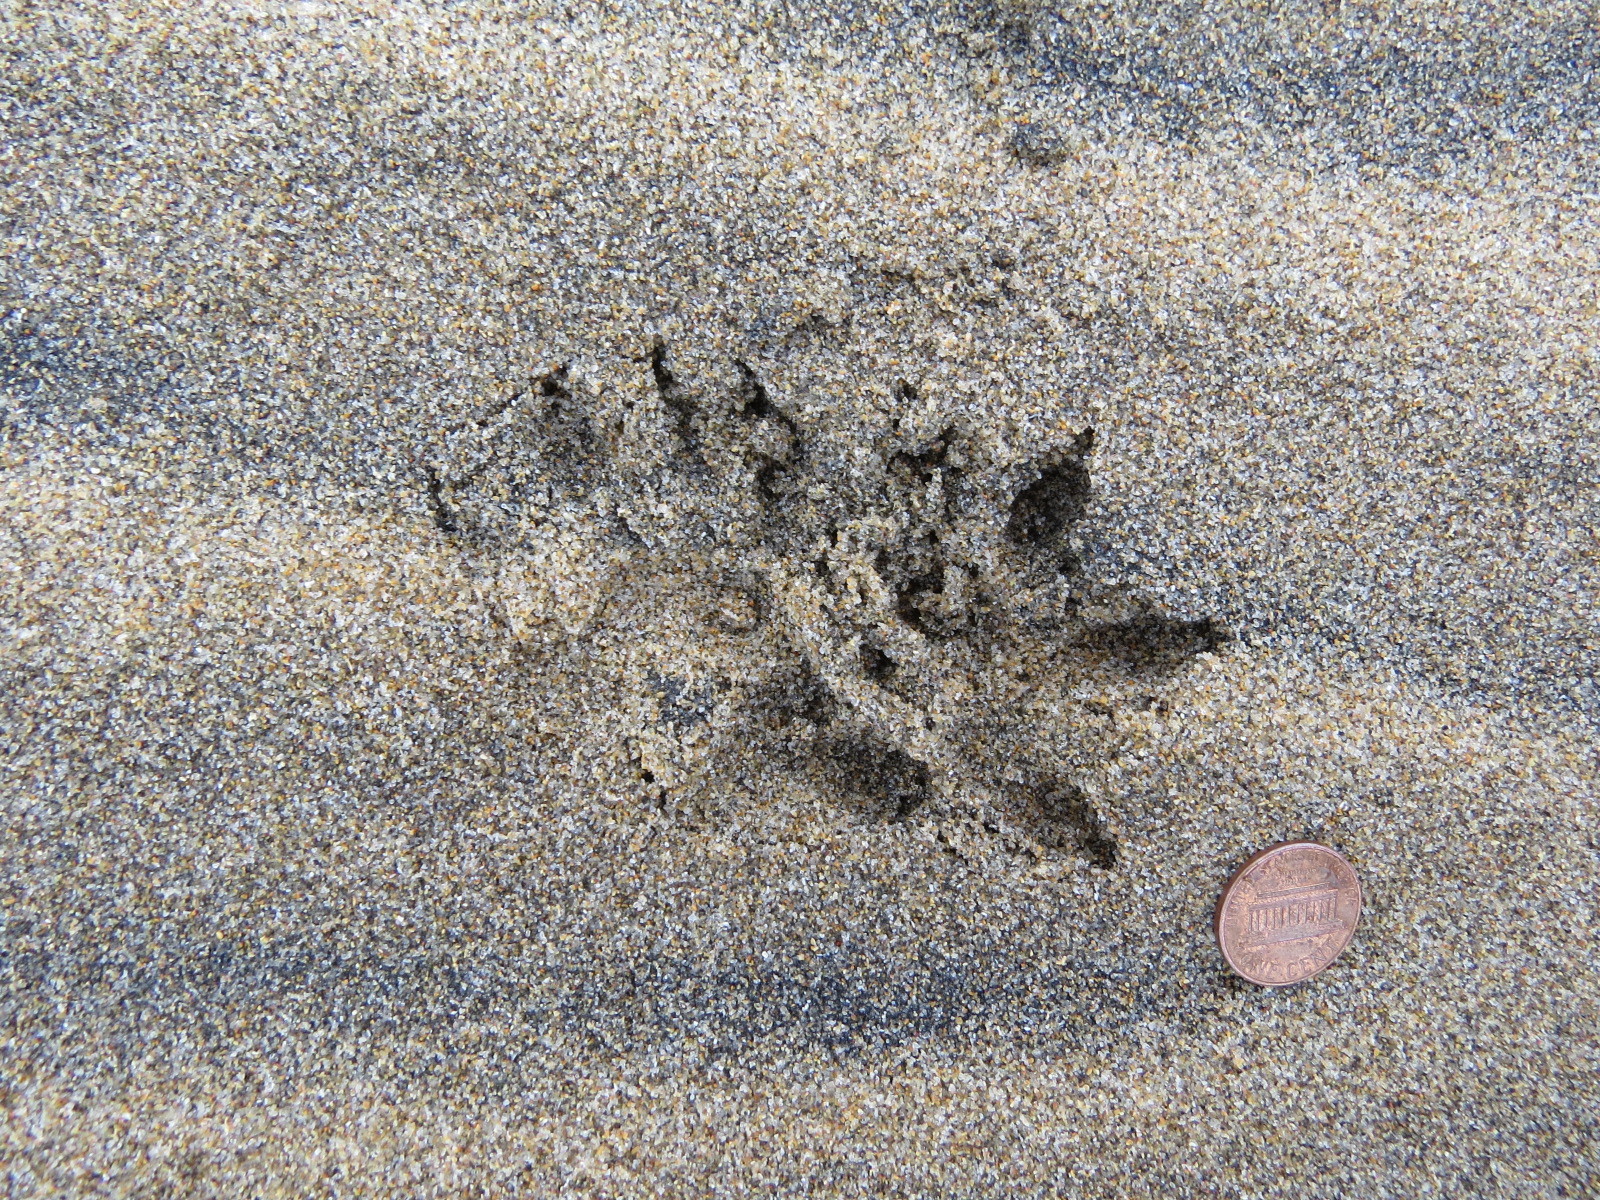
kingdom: Animalia
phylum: Chordata
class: Mammalia
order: Didelphimorphia
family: Didelphidae
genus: Didelphis
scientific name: Didelphis virginiana
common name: Virginia opossum
